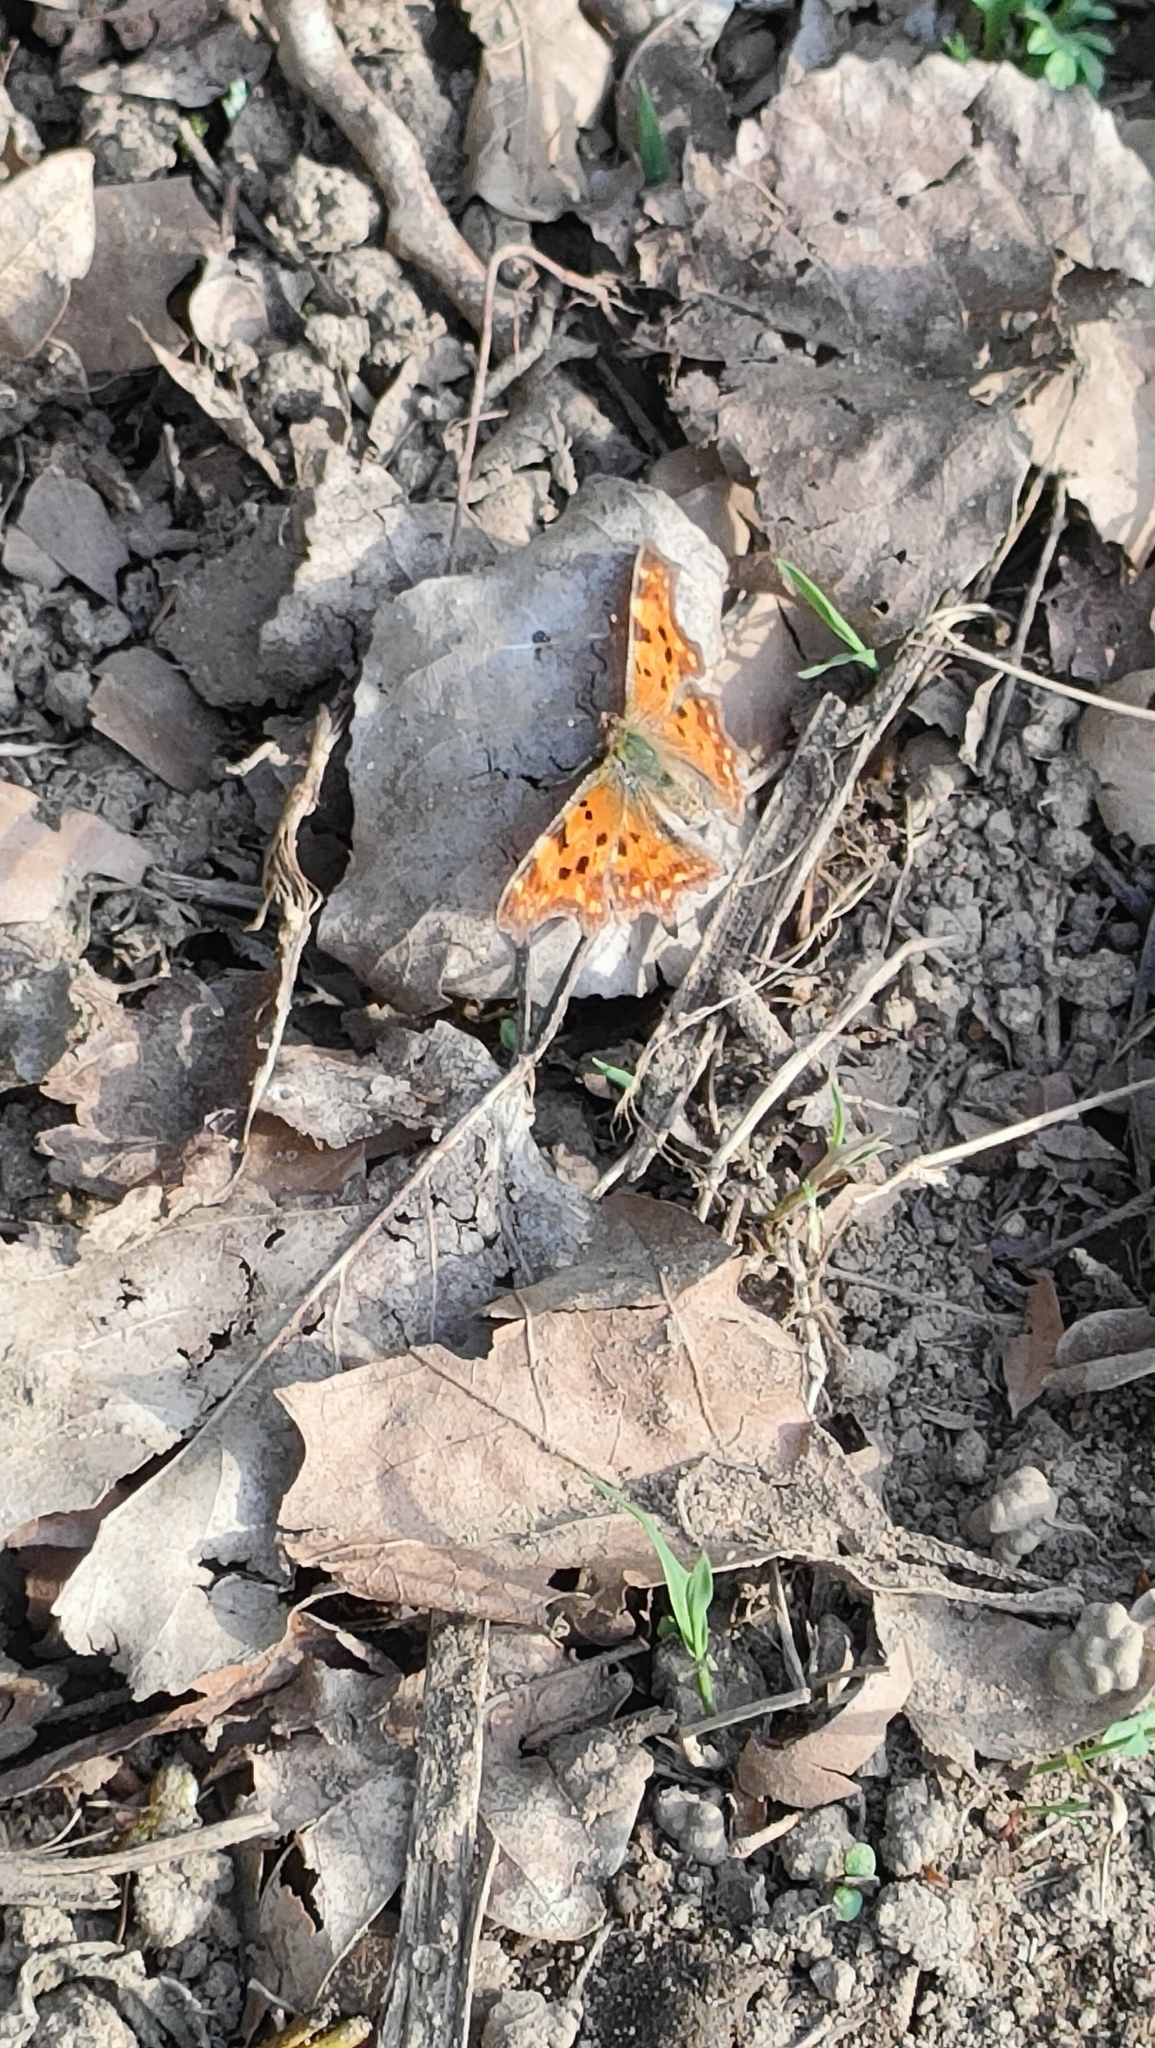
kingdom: Animalia
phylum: Arthropoda
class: Insecta
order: Lepidoptera
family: Nymphalidae
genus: Polygonia
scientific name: Polygonia c-album
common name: Comma
